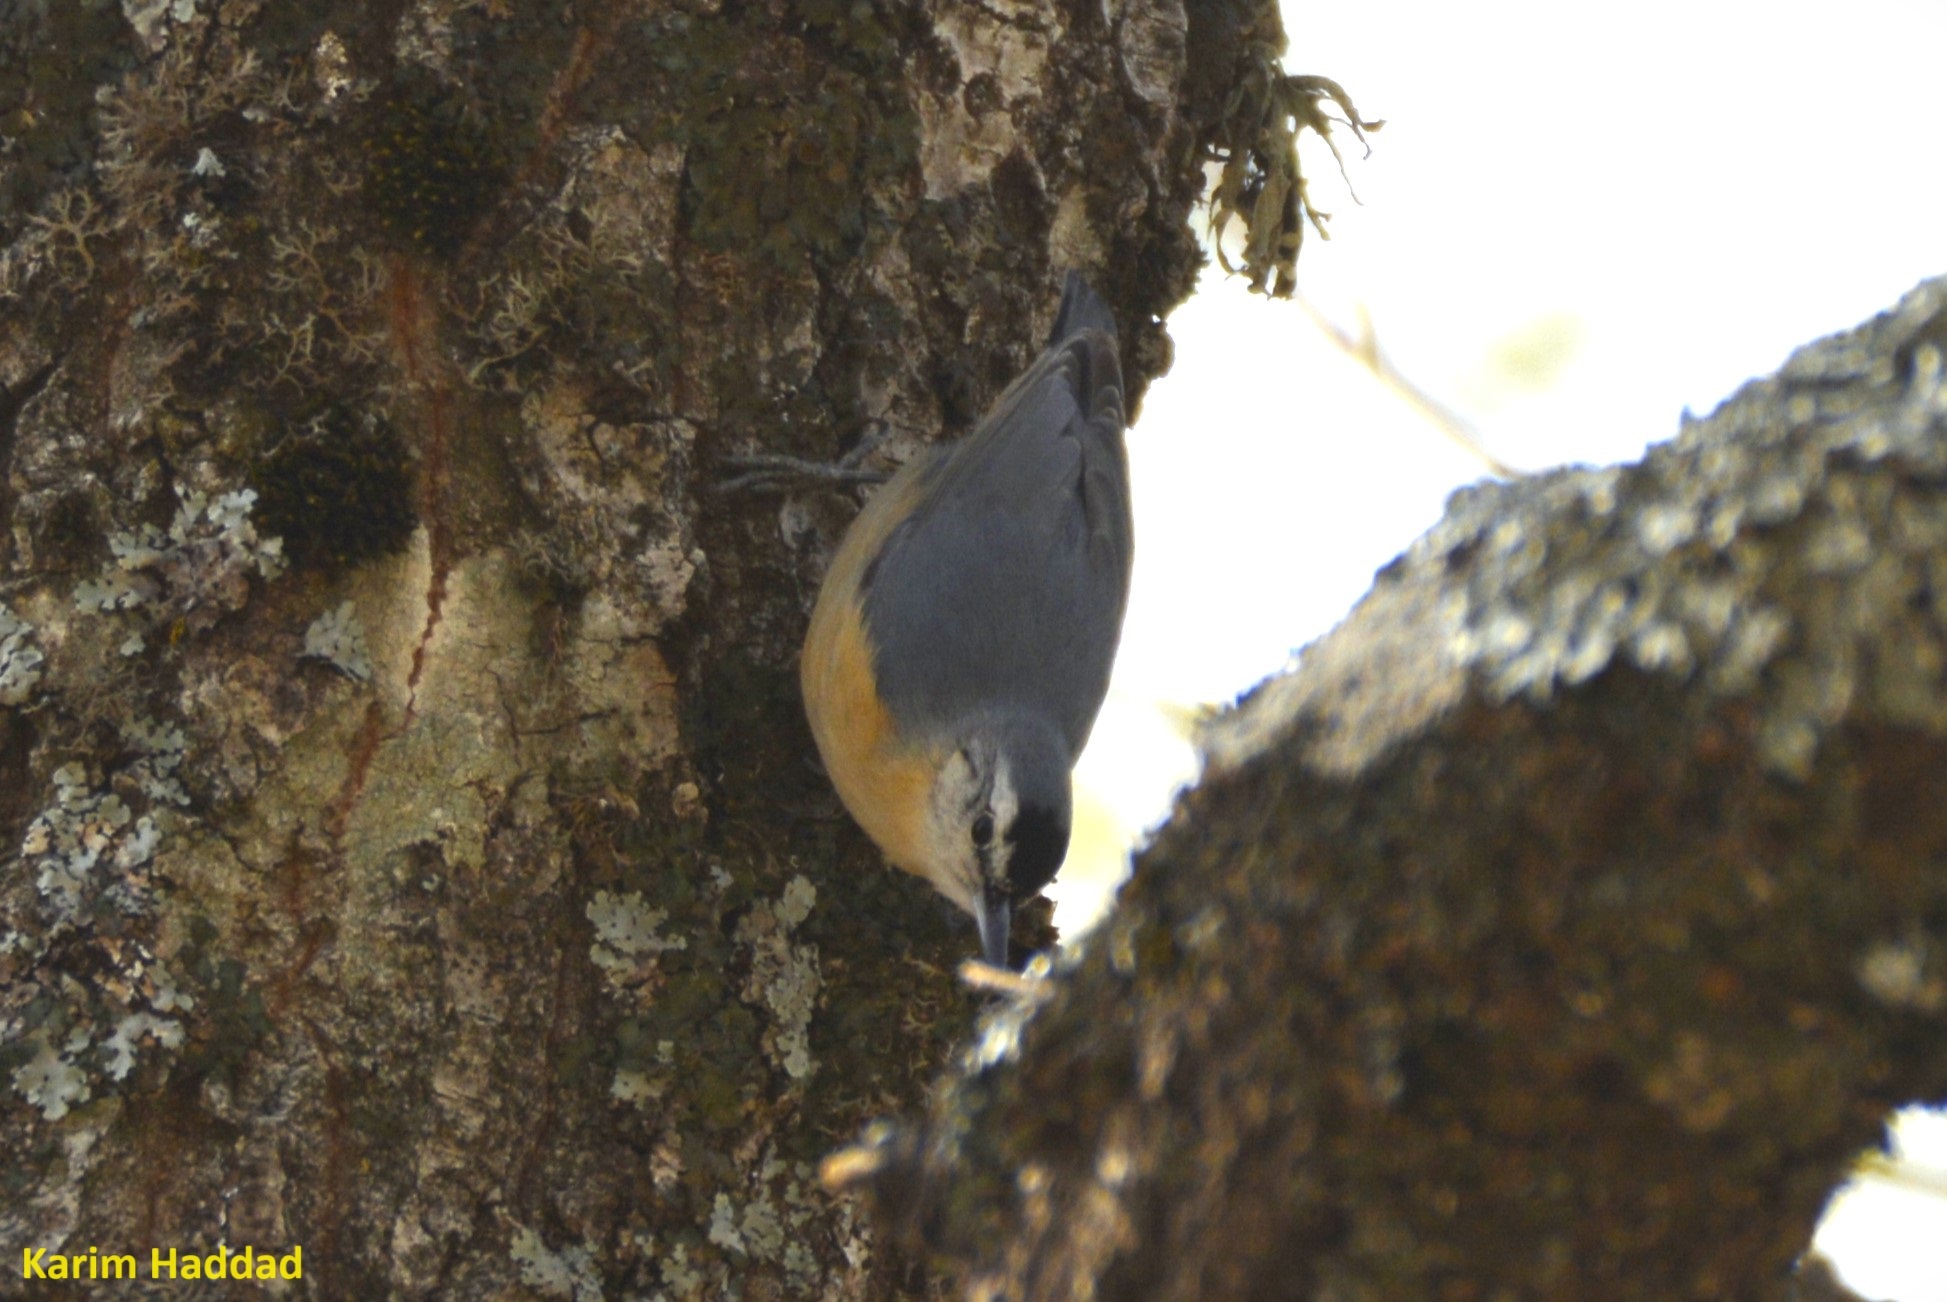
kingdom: Animalia
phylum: Chordata
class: Aves
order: Passeriformes
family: Sittidae
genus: Sitta
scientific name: Sitta ledanti
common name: Algerian nuthatch
